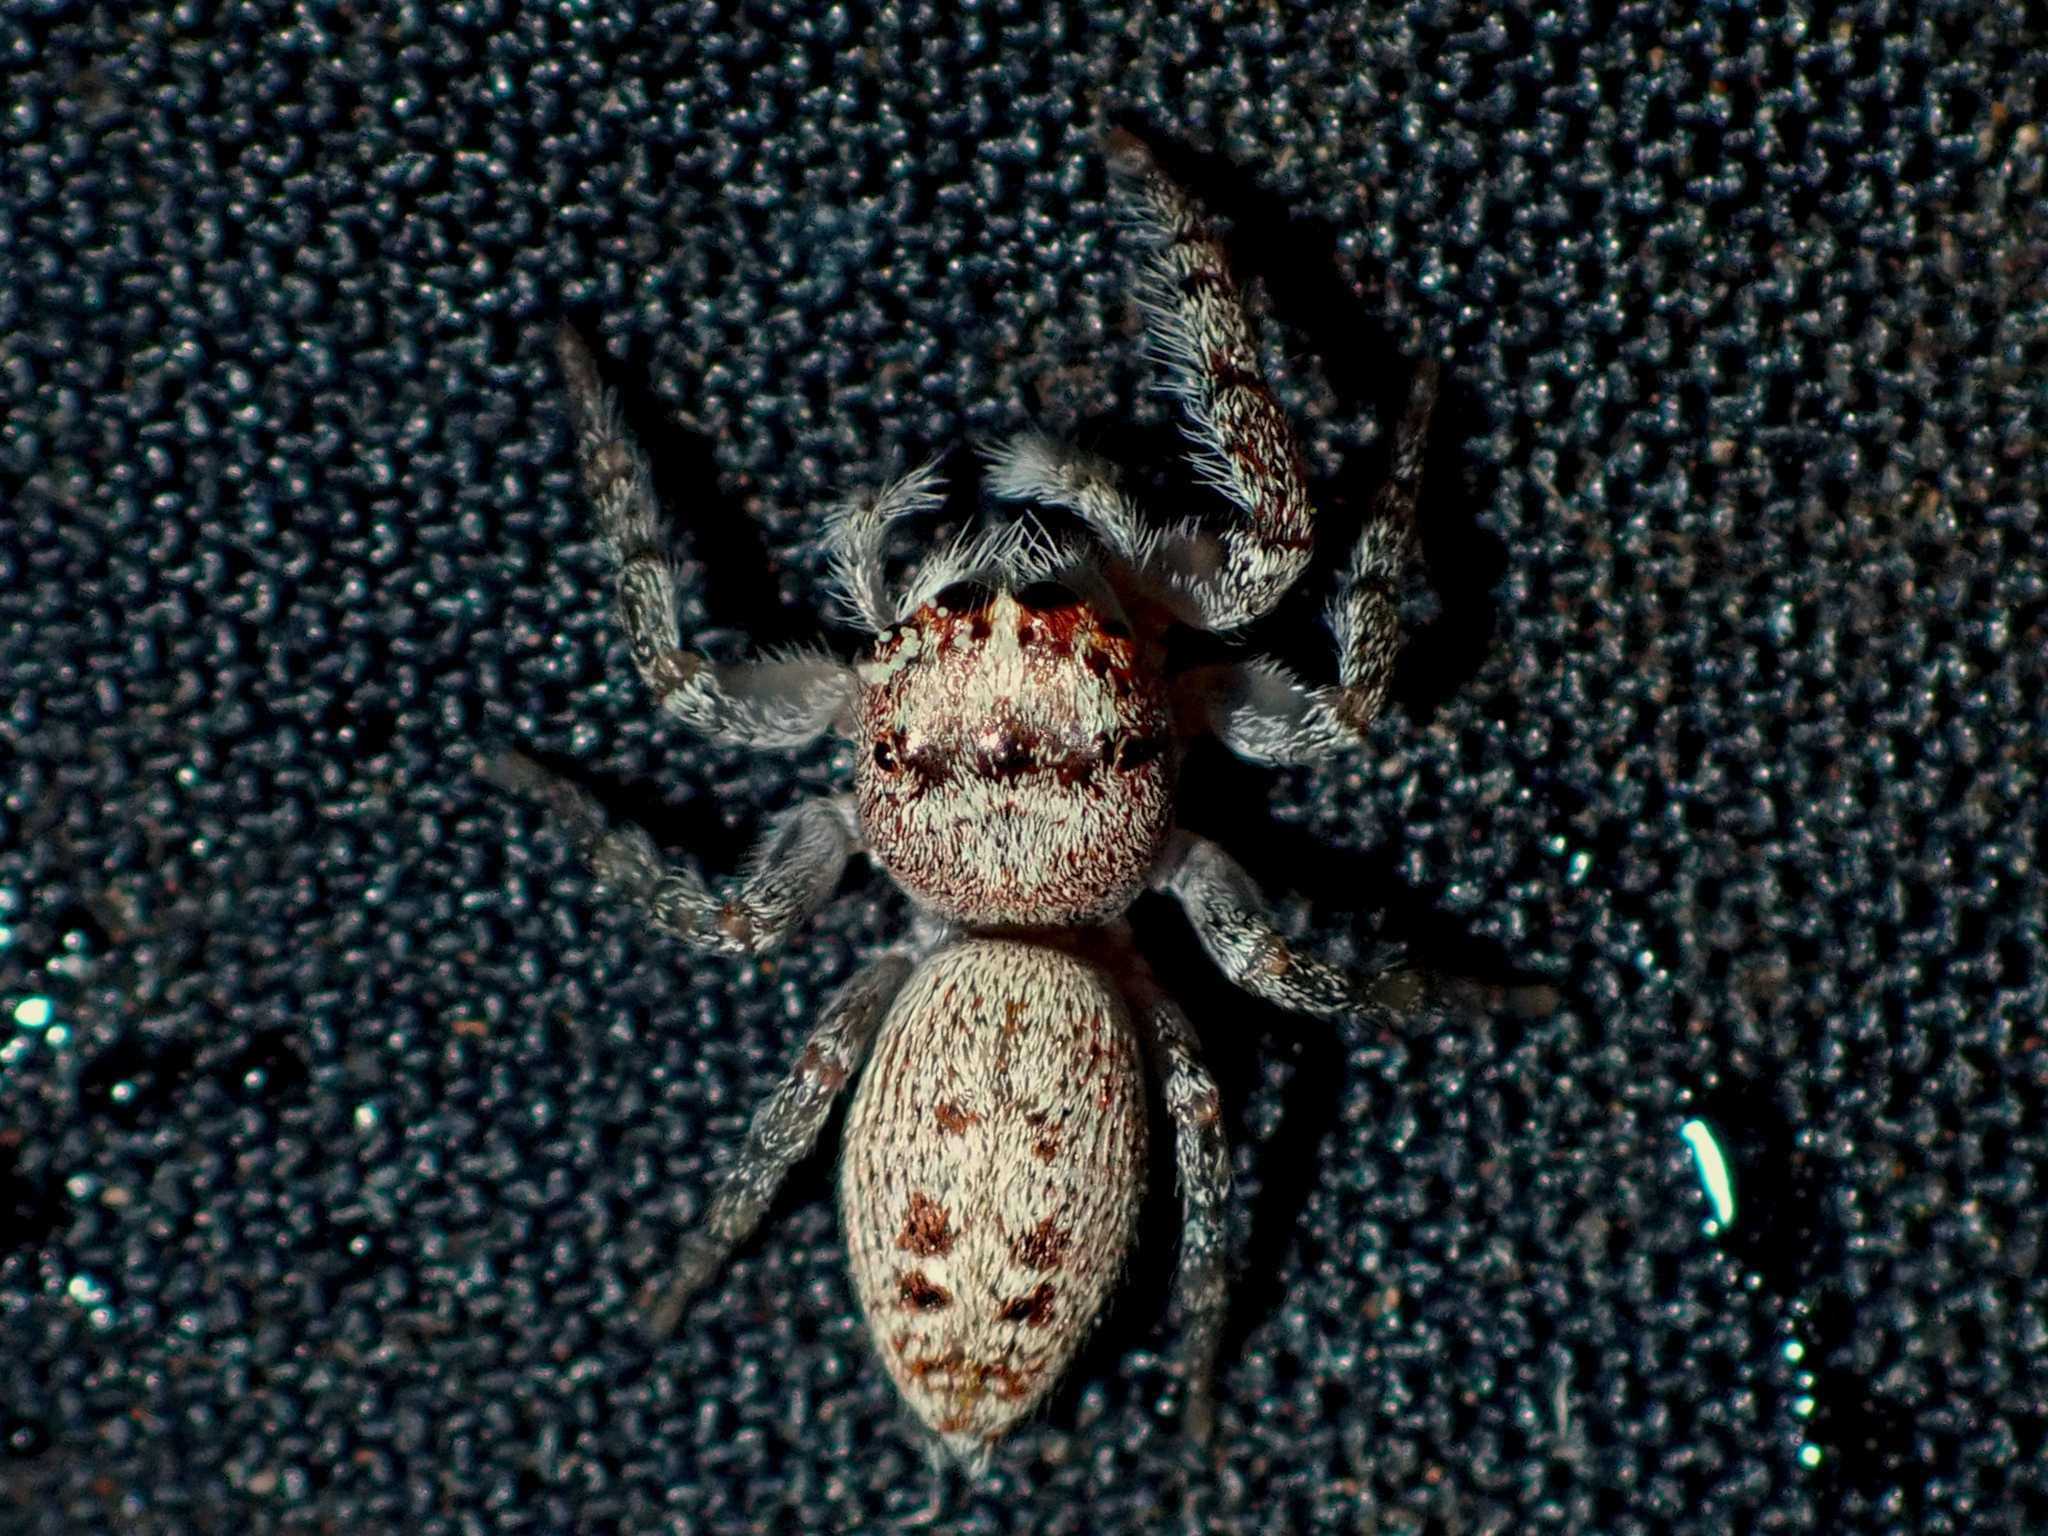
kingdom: Animalia
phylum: Arthropoda
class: Arachnida
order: Araneae
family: Salticidae
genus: Opisthoncus
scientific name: Opisthoncus polyphemus
